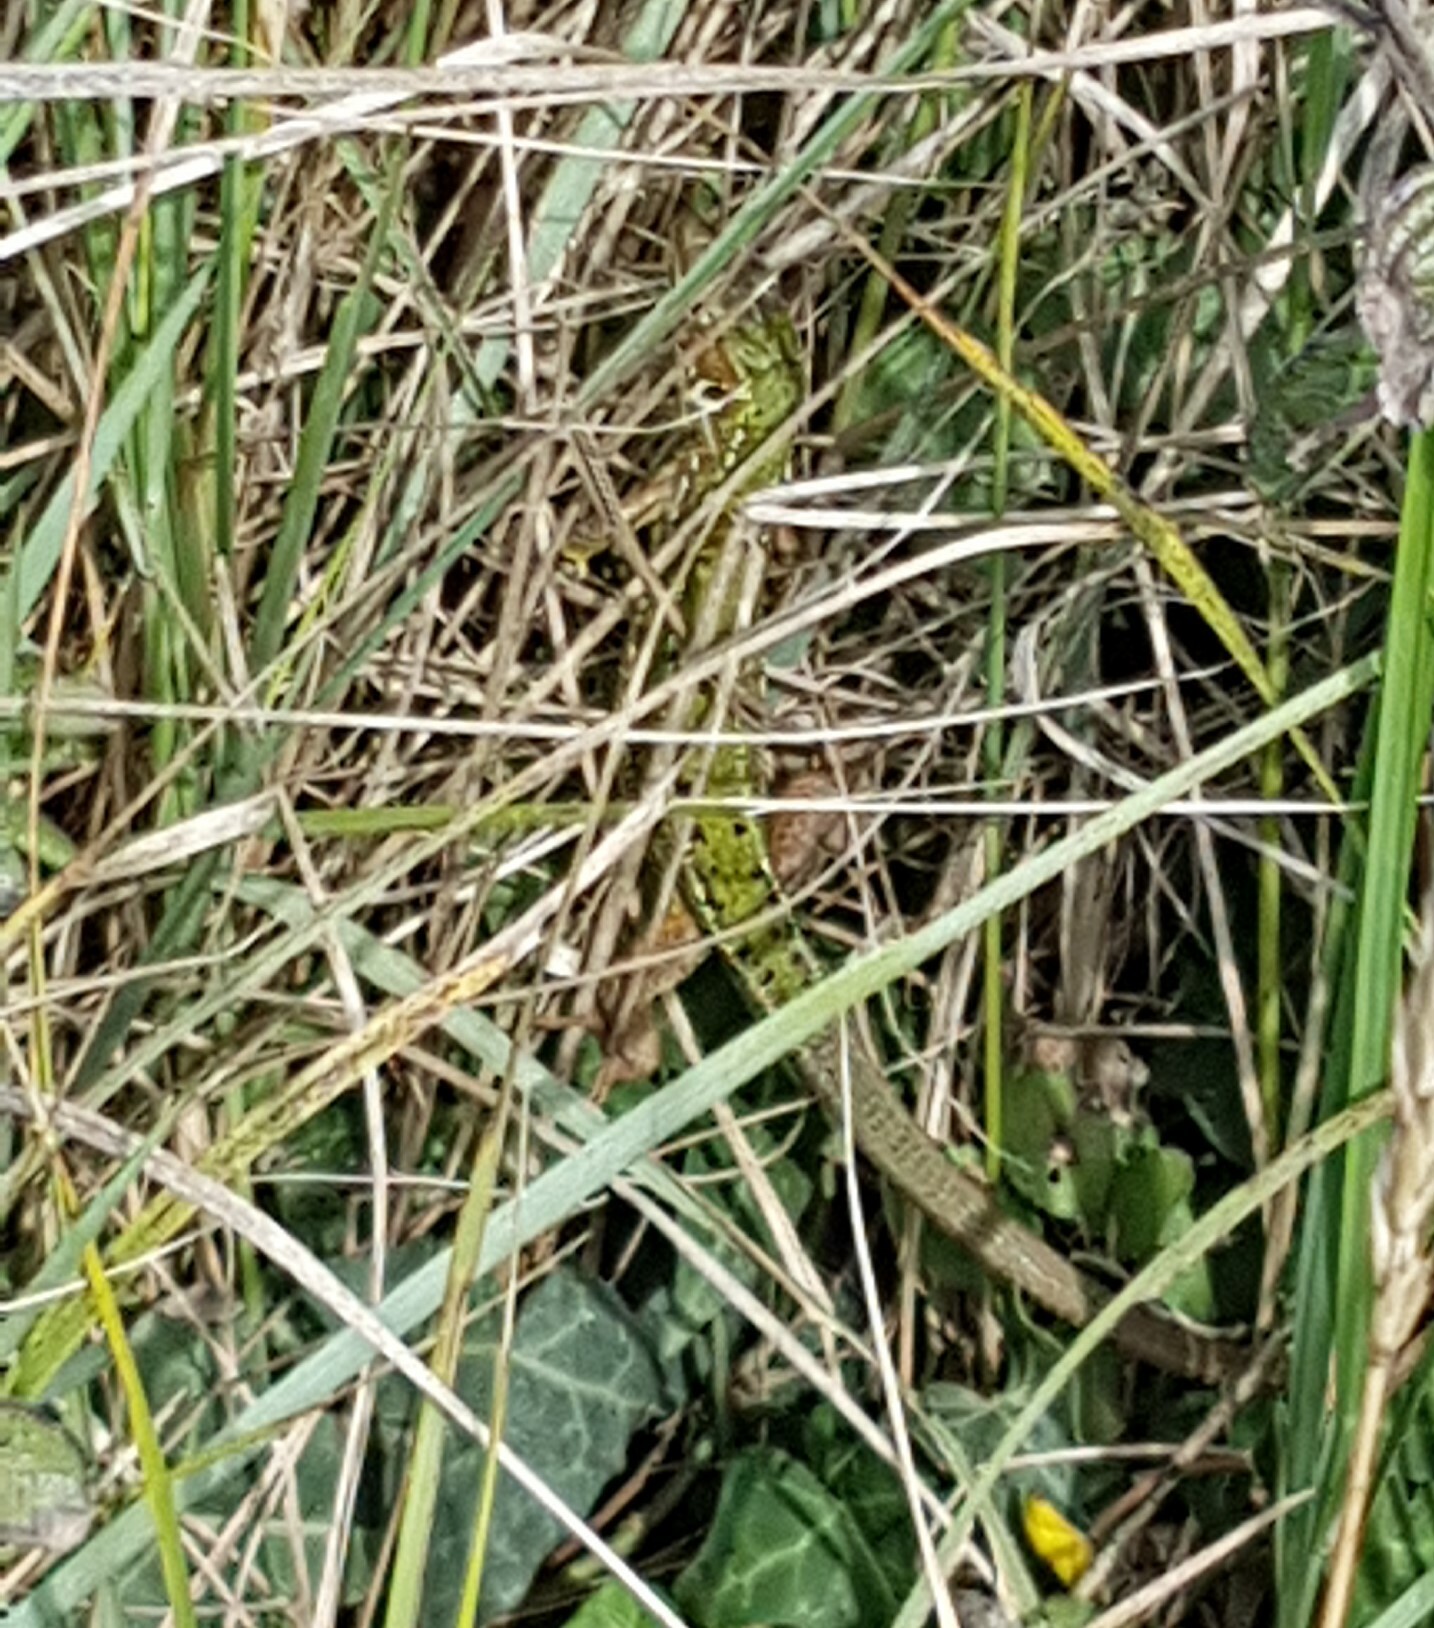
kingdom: Animalia
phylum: Chordata
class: Squamata
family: Lacertidae
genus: Lacerta
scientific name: Lacerta bilineata
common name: Western green lizard
